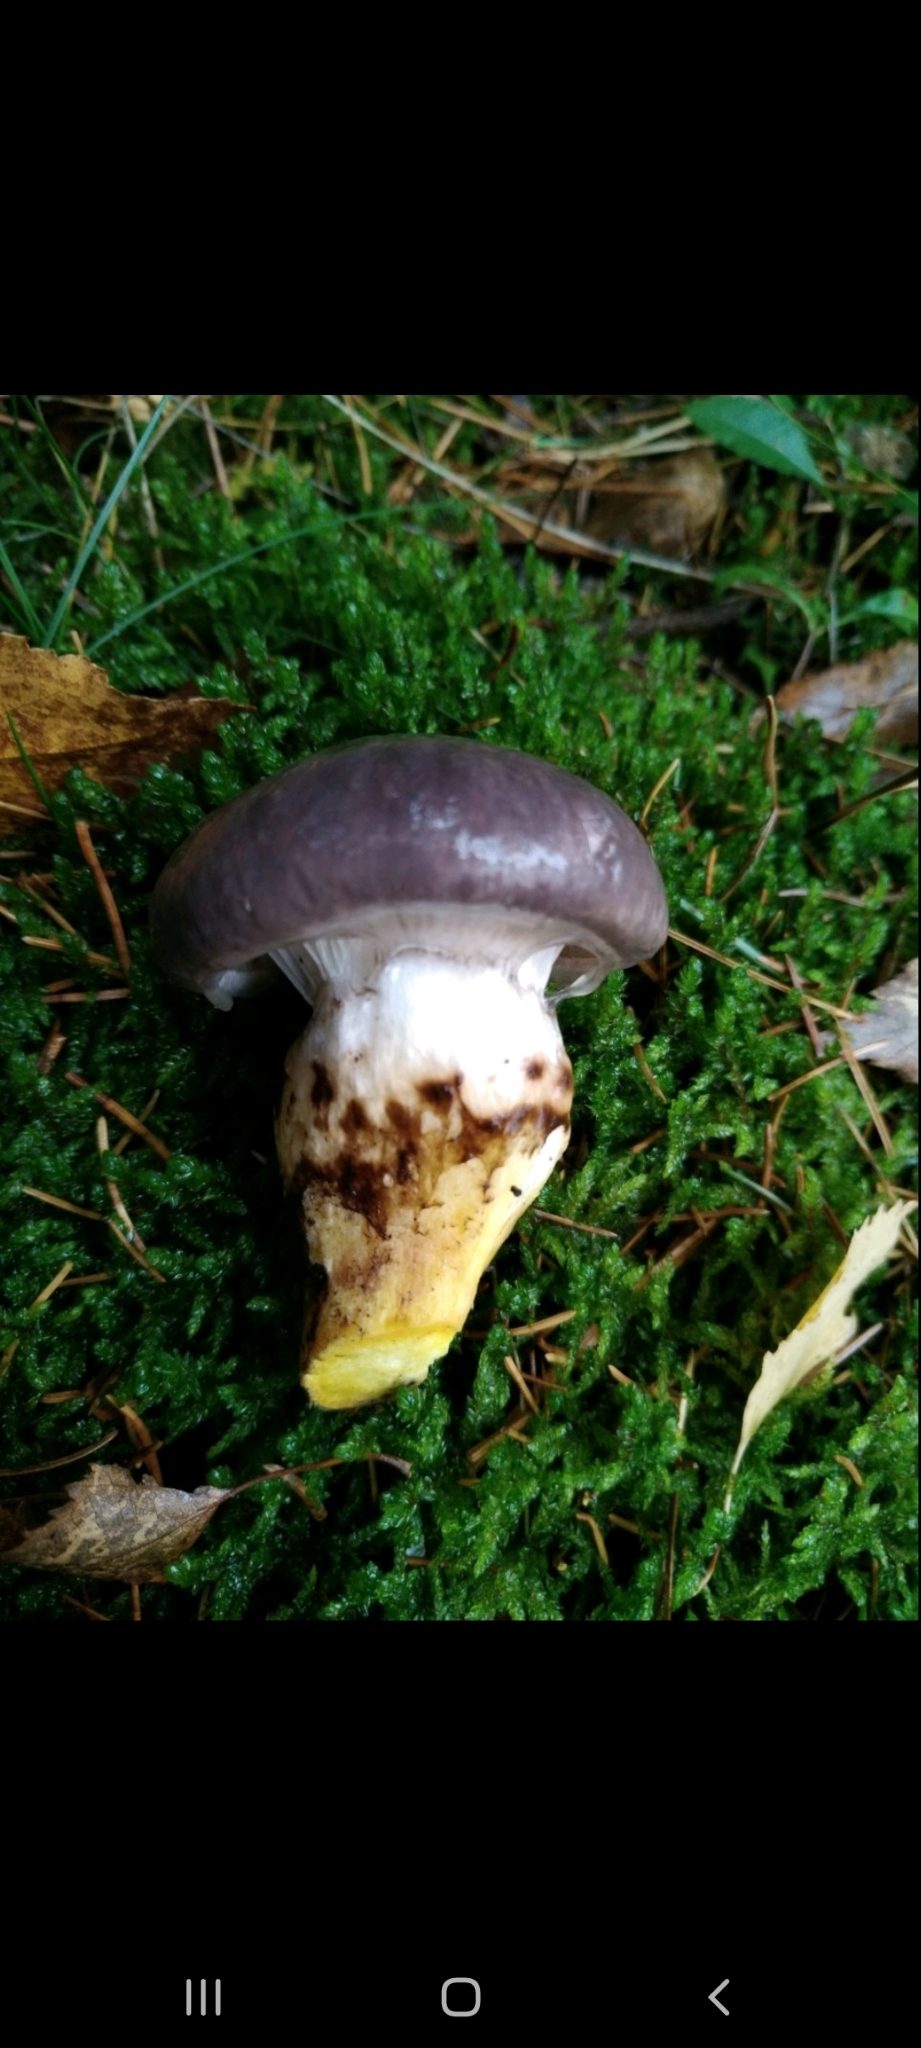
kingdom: Fungi
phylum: Basidiomycota
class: Agaricomycetes
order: Boletales
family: Gomphidiaceae
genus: Gomphidius
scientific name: Gomphidius glutinosus
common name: Slimy spike
